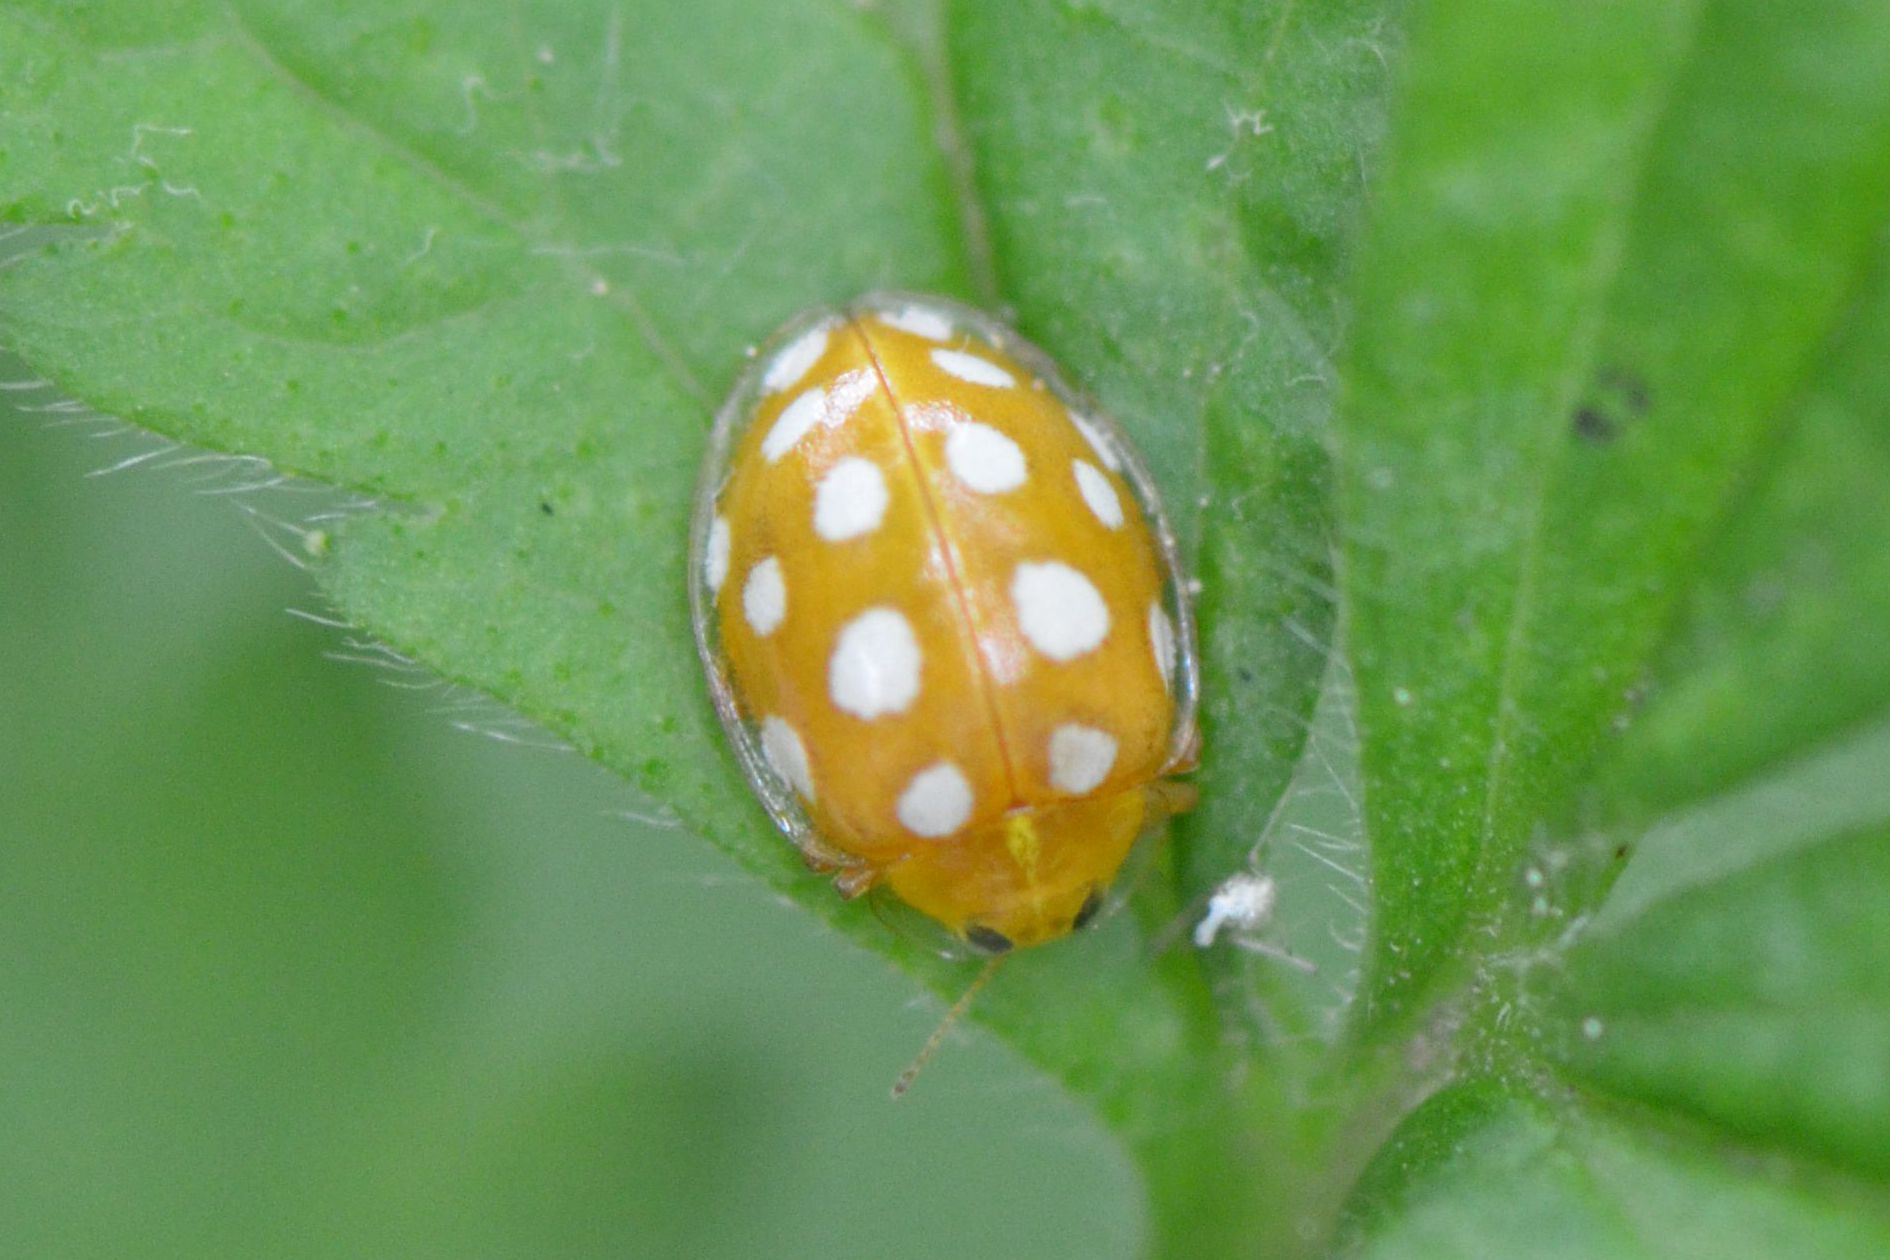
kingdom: Animalia
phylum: Arthropoda
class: Insecta
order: Coleoptera
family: Coccinellidae
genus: Halyzia
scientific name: Halyzia sedecimguttata
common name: Orange ladybird
